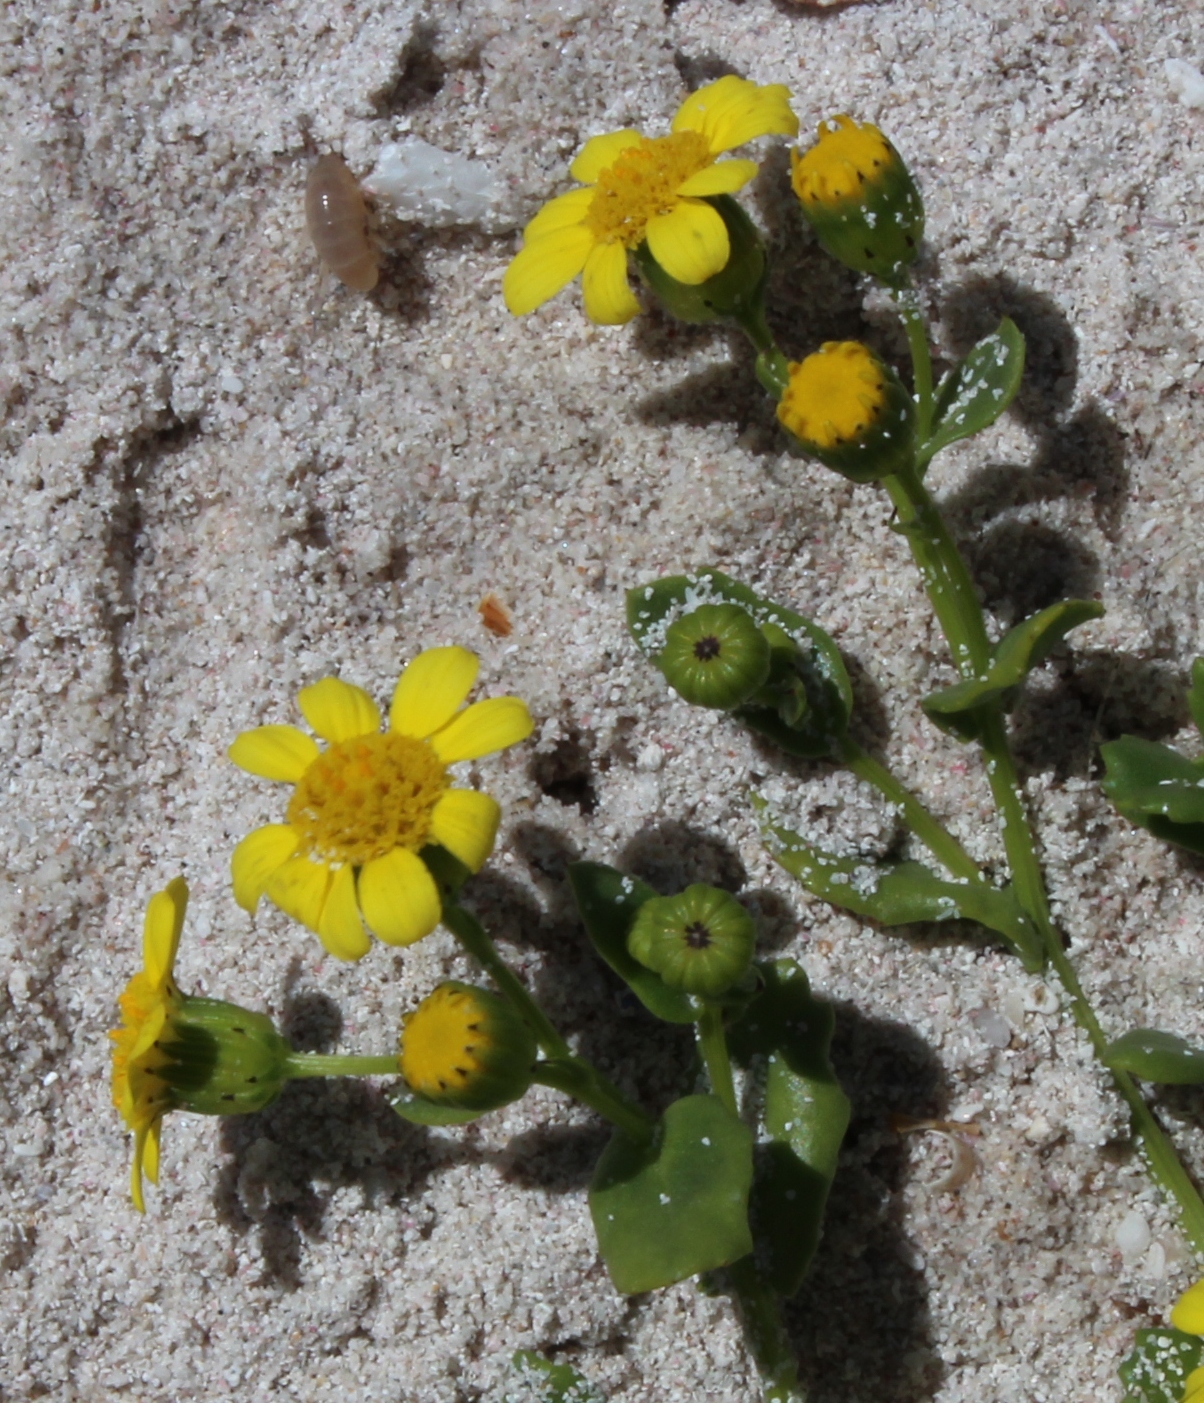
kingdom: Plantae
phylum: Tracheophyta
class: Magnoliopsida
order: Asterales
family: Asteraceae
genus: Senecio
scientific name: Senecio maritimus
